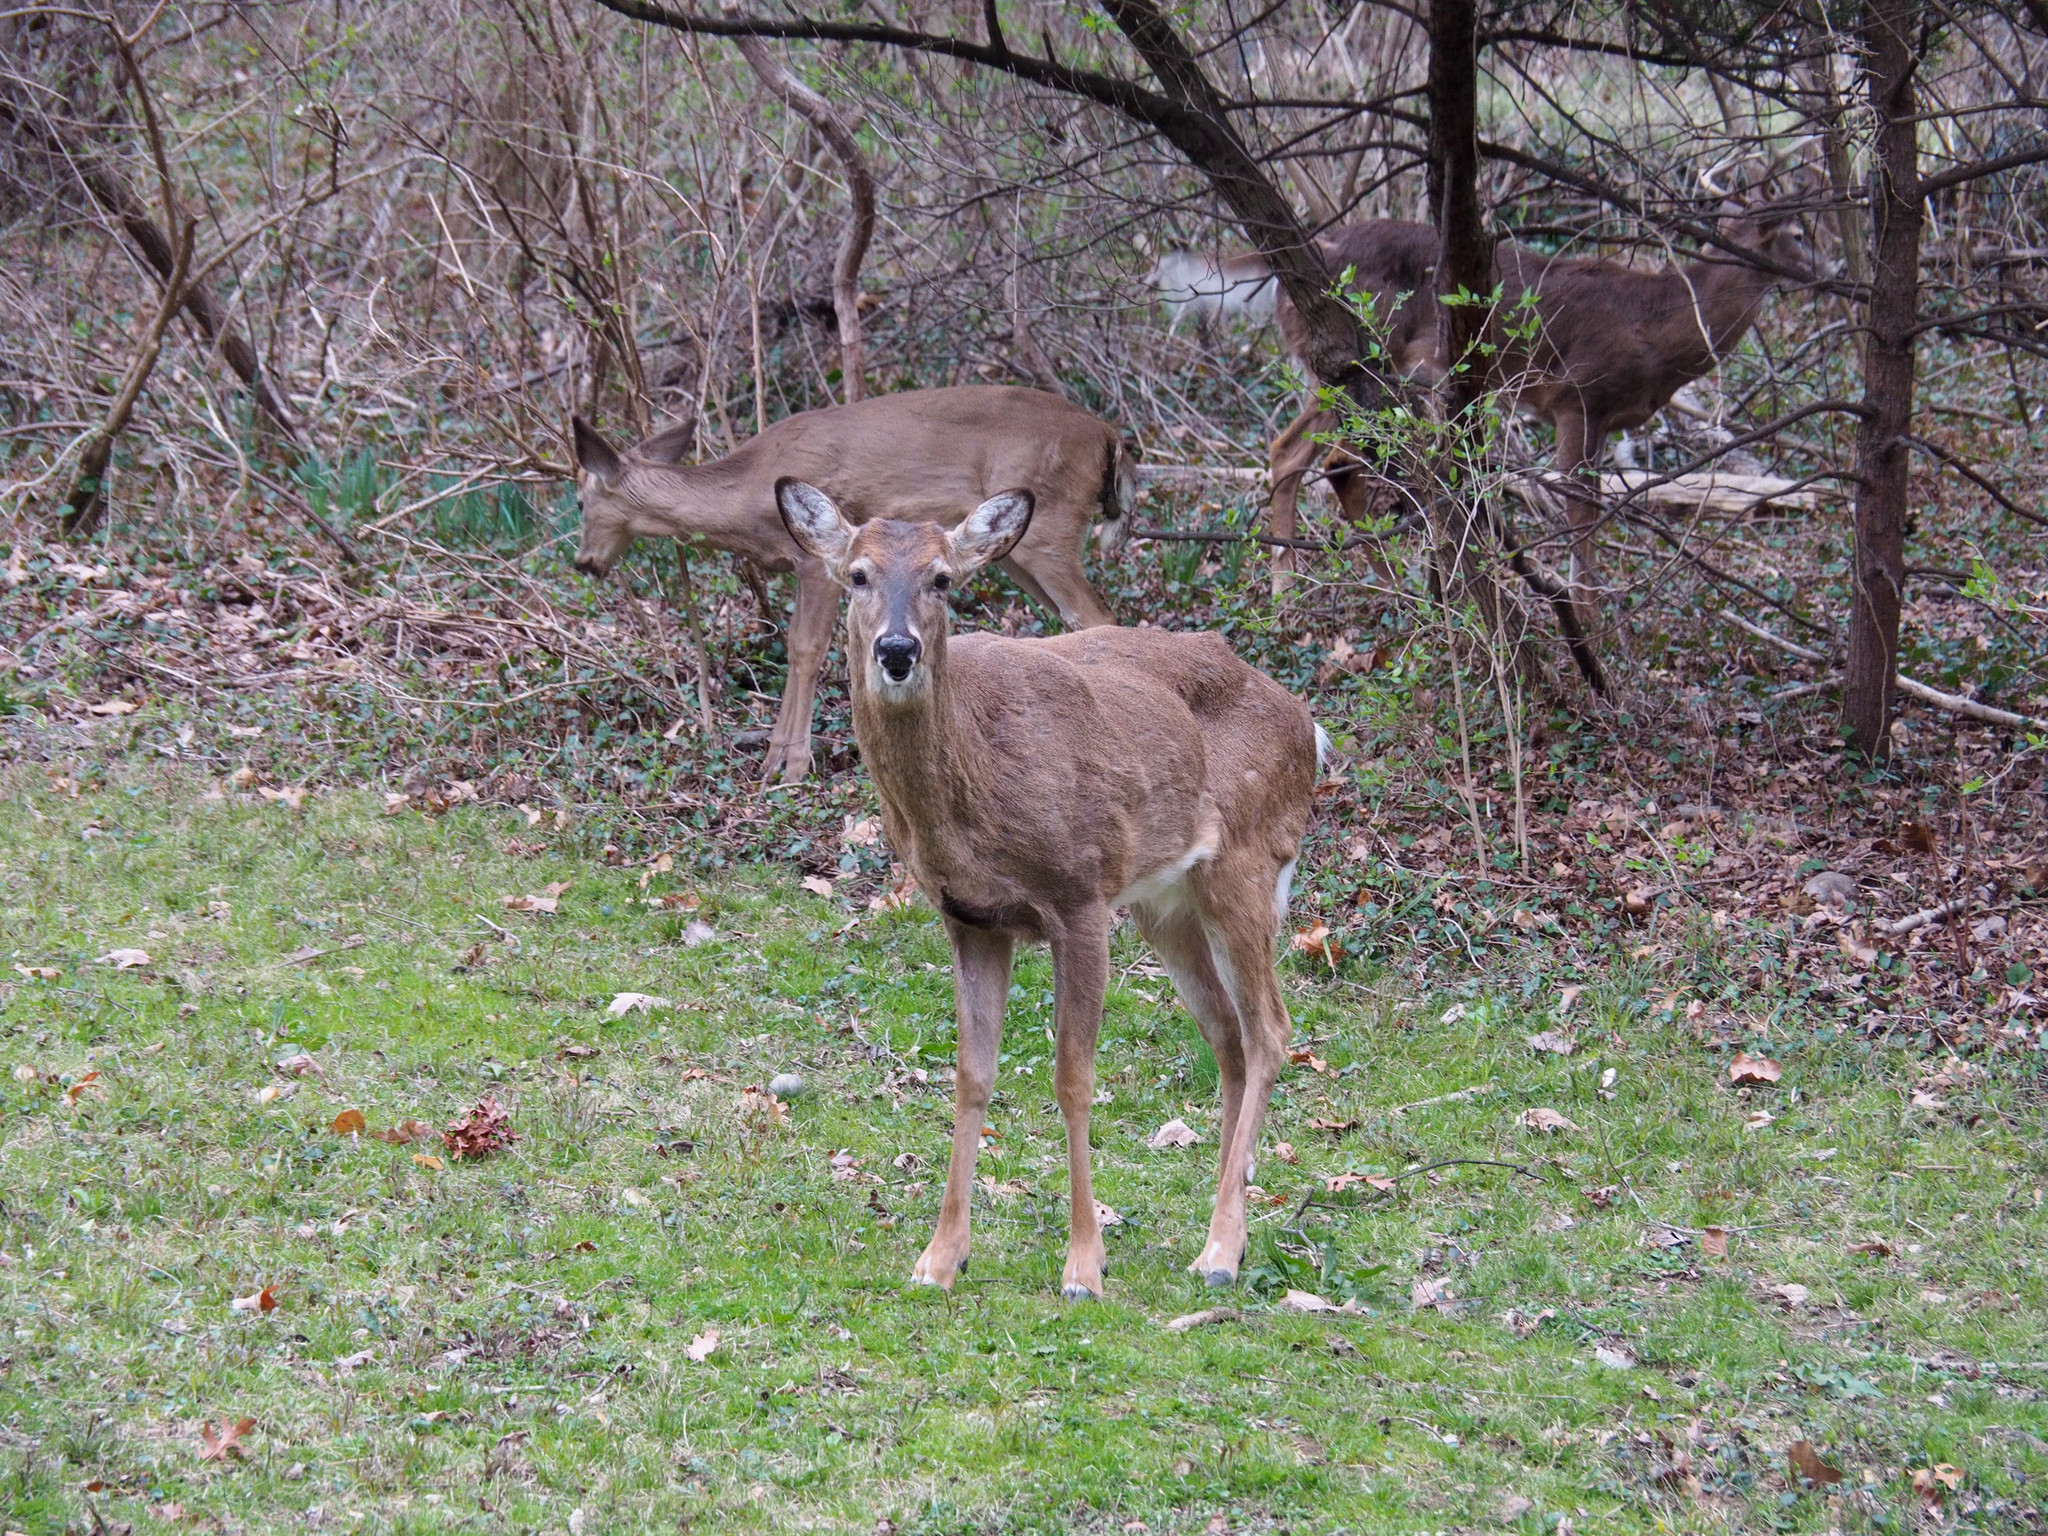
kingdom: Animalia
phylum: Chordata
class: Mammalia
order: Artiodactyla
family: Cervidae
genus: Odocoileus
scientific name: Odocoileus virginianus
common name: White-tailed deer
